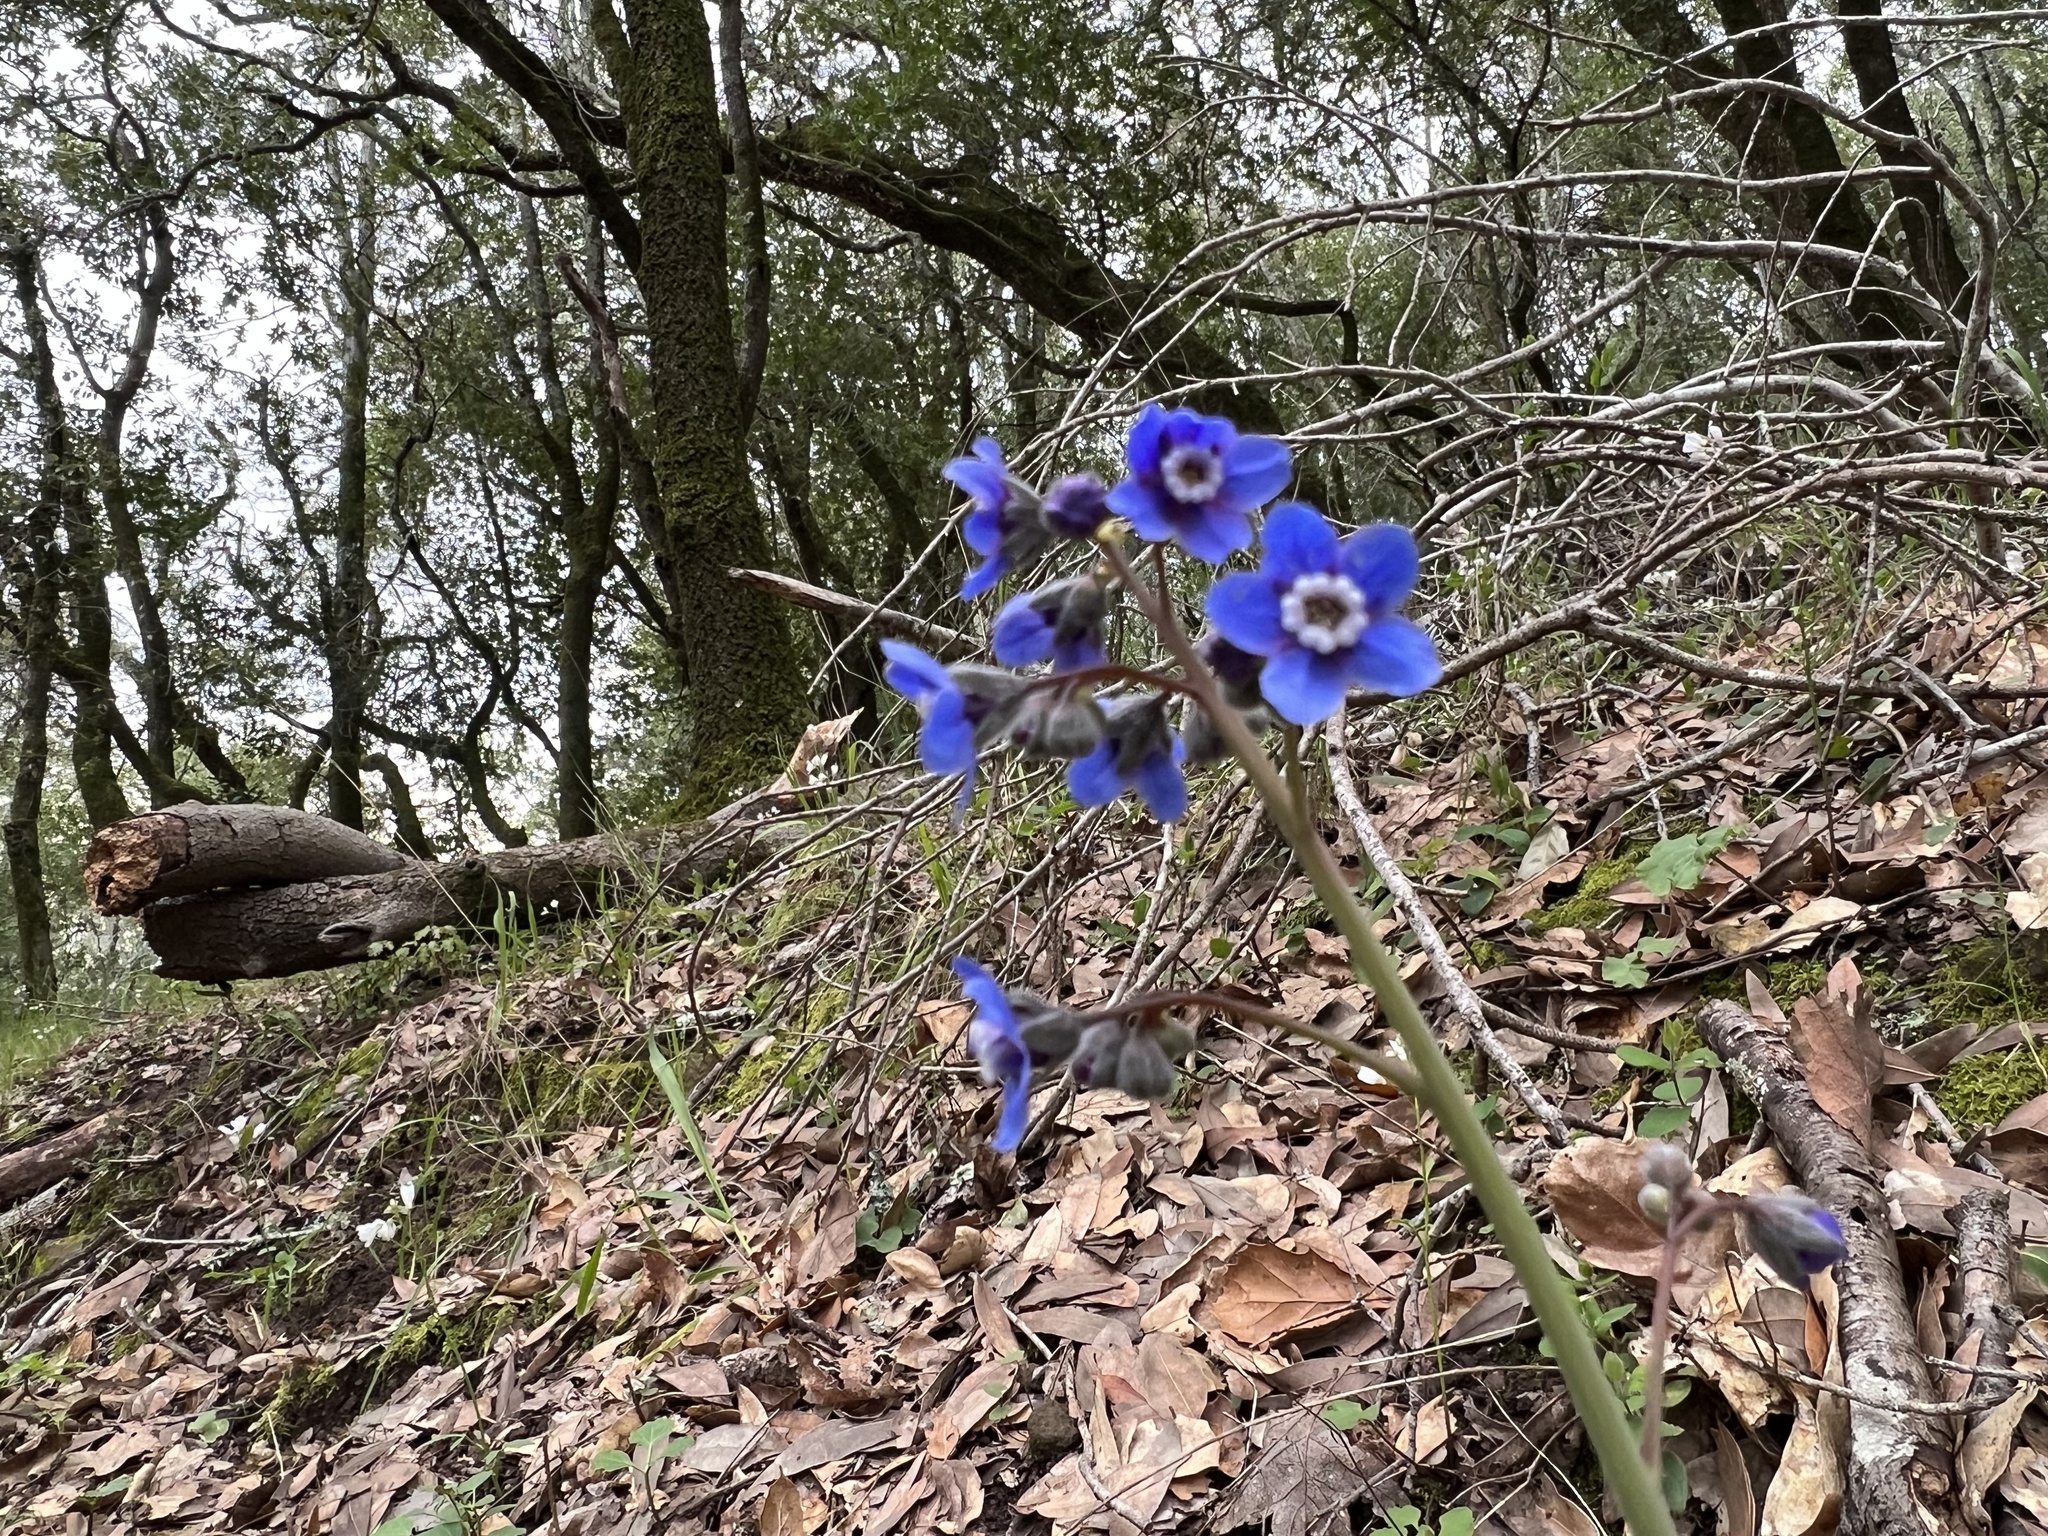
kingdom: Plantae
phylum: Tracheophyta
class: Magnoliopsida
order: Boraginales
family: Boraginaceae
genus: Adelinia
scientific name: Adelinia grande
